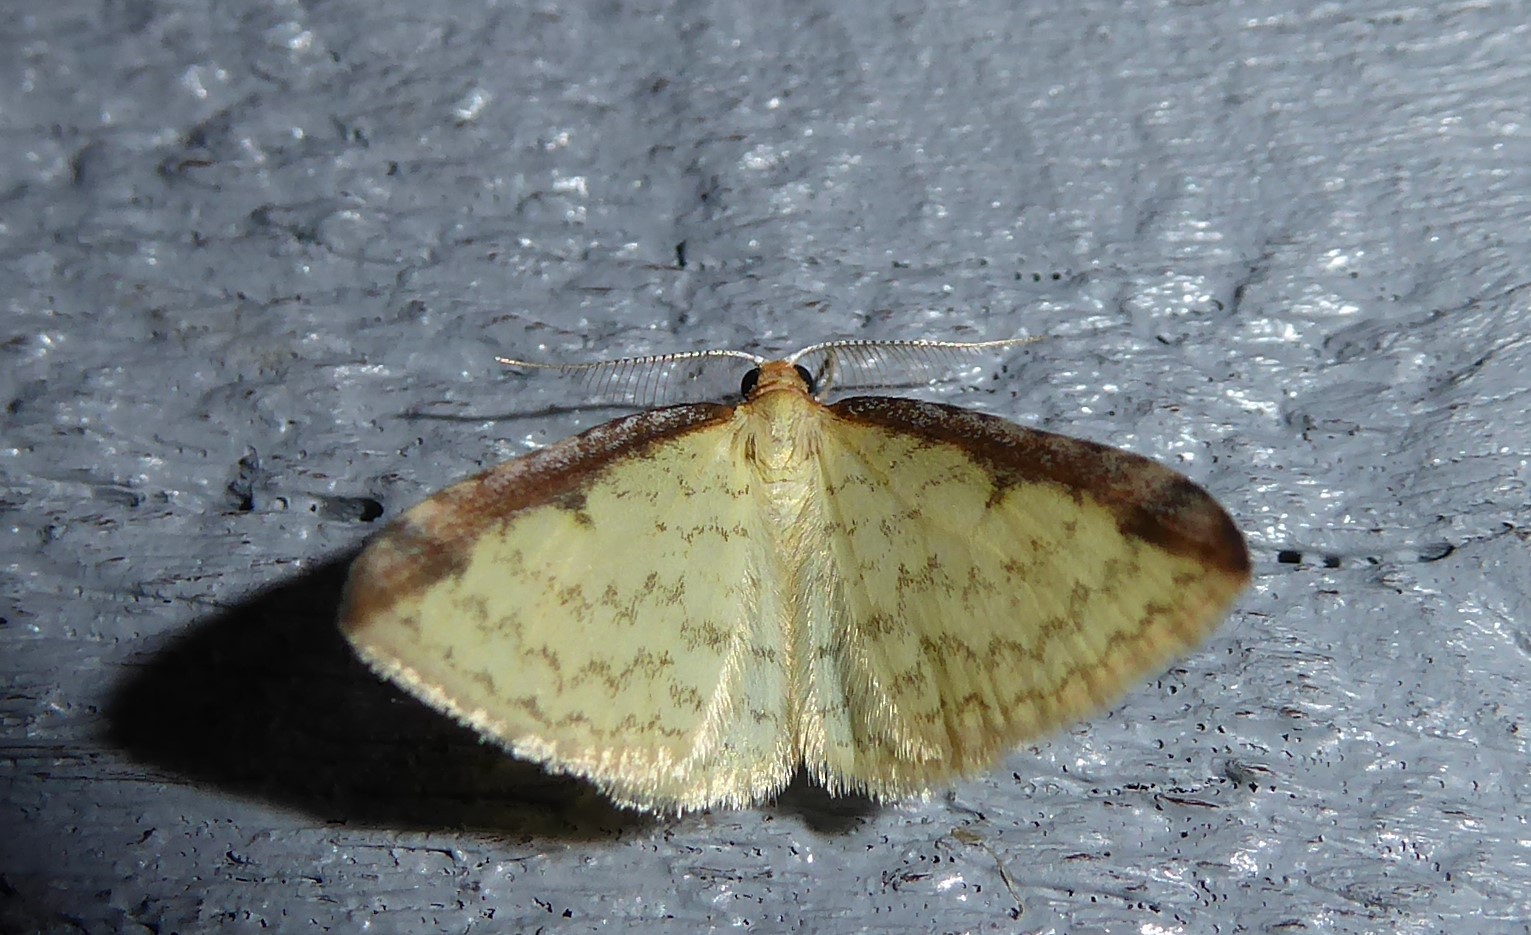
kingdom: Animalia
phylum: Arthropoda
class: Insecta
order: Lepidoptera
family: Geometridae
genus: Epiphryne
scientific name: Epiphryne undosata
